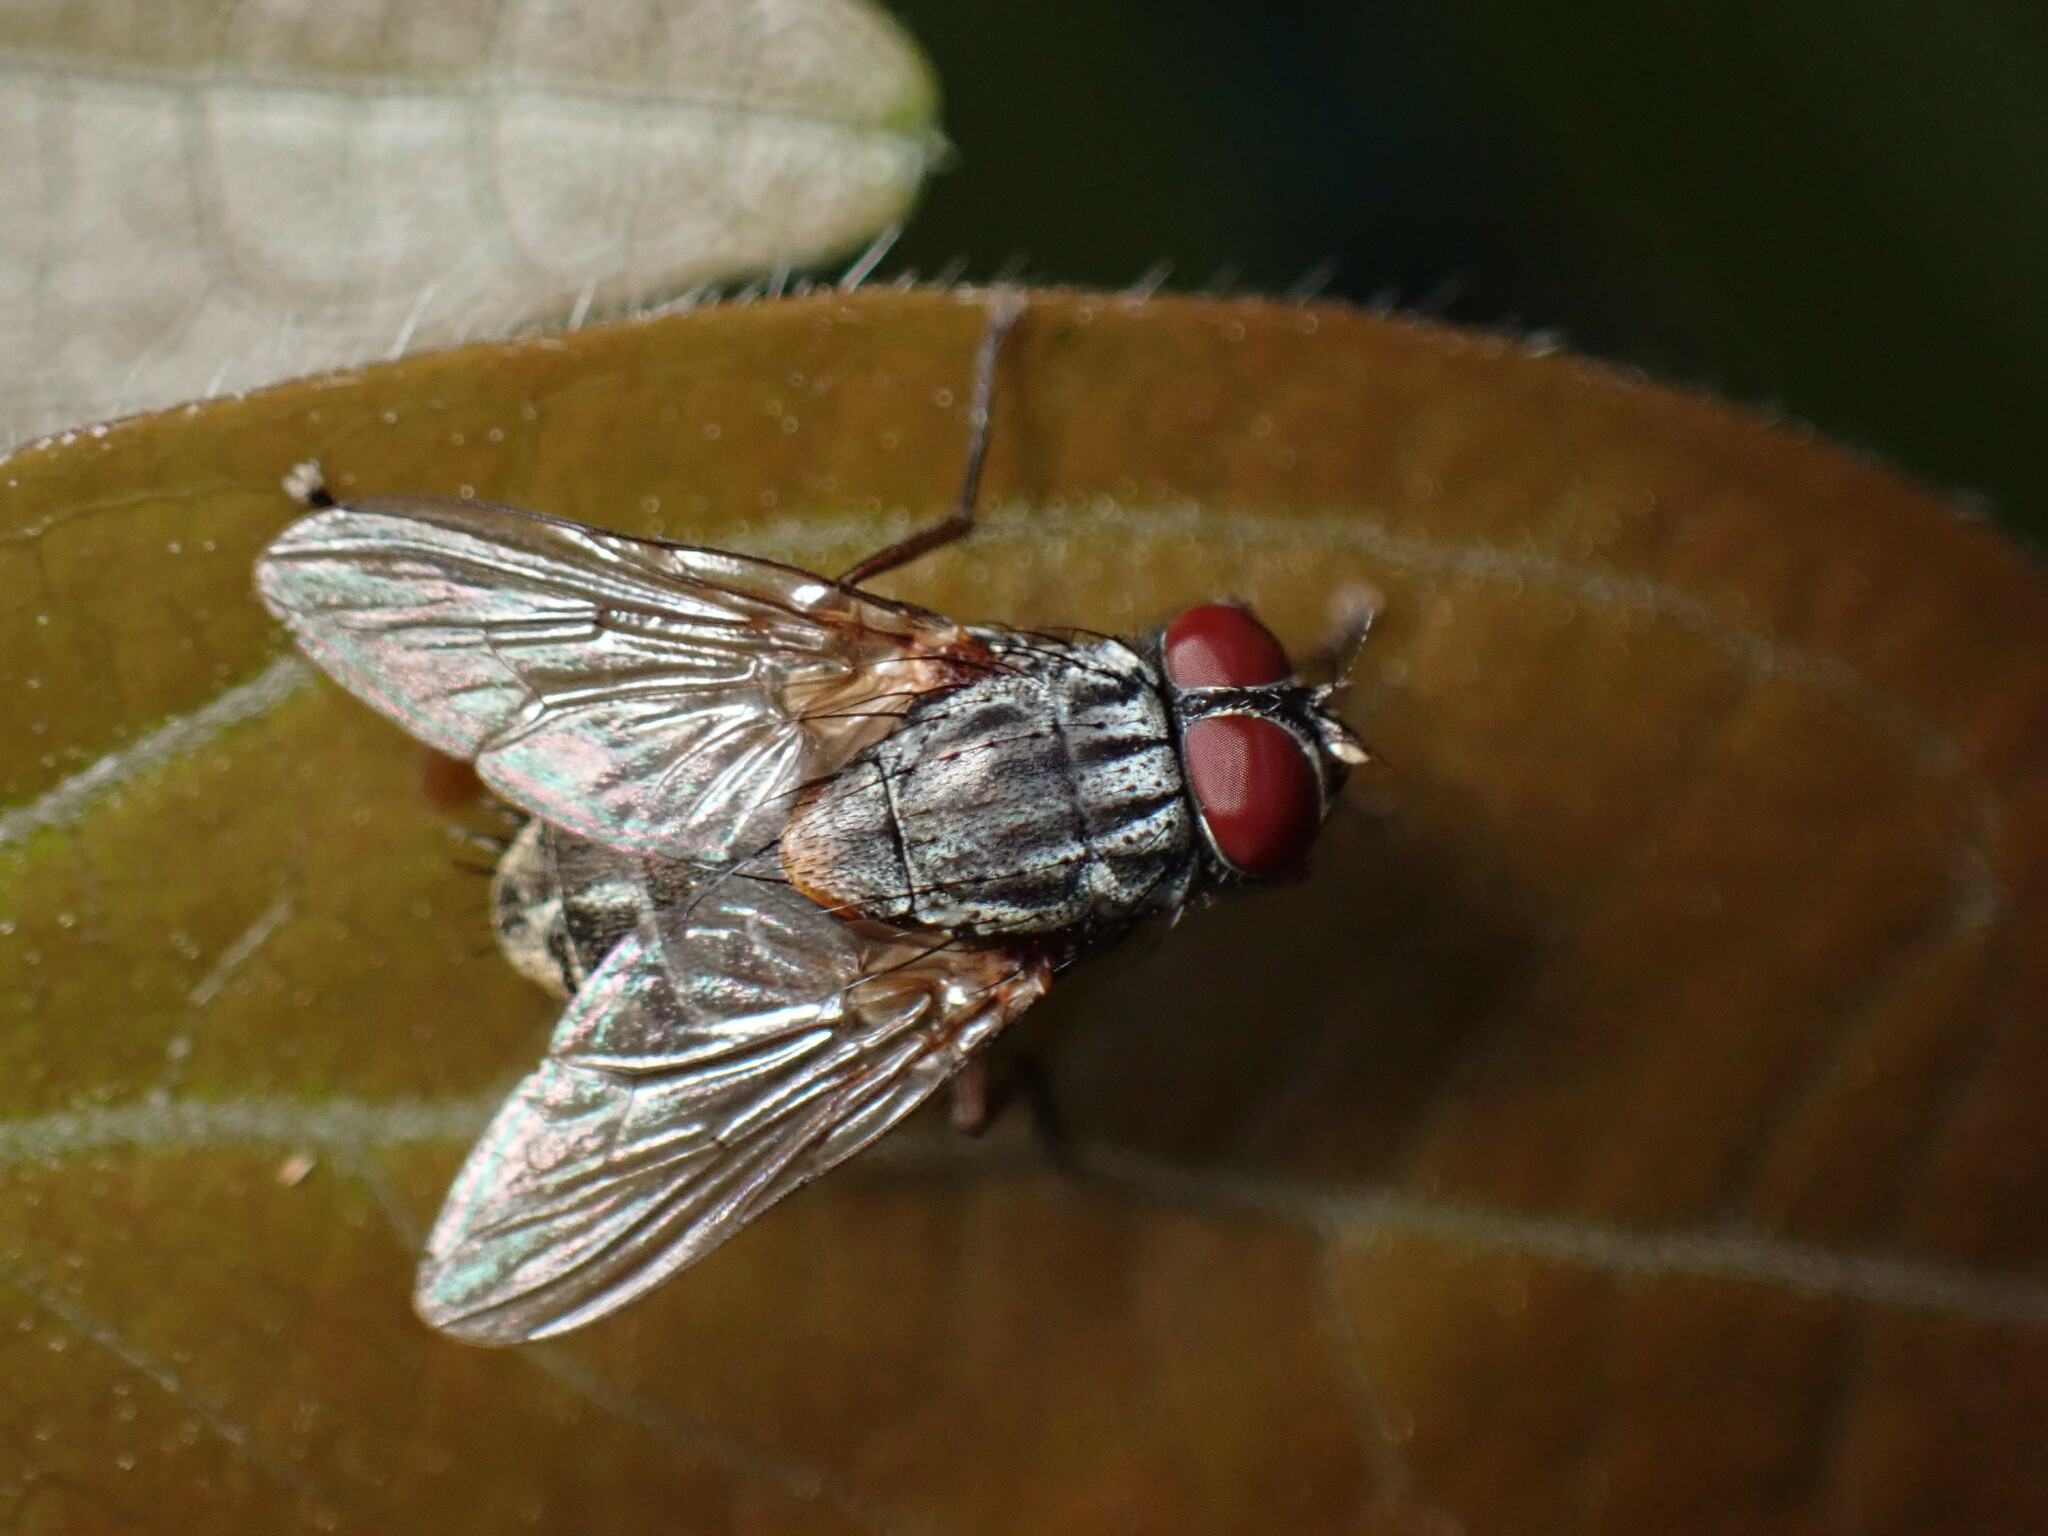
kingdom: Animalia
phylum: Arthropoda
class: Insecta
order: Diptera
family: Muscidae
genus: Muscina
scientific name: Muscina stabulans
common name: False stable fly
